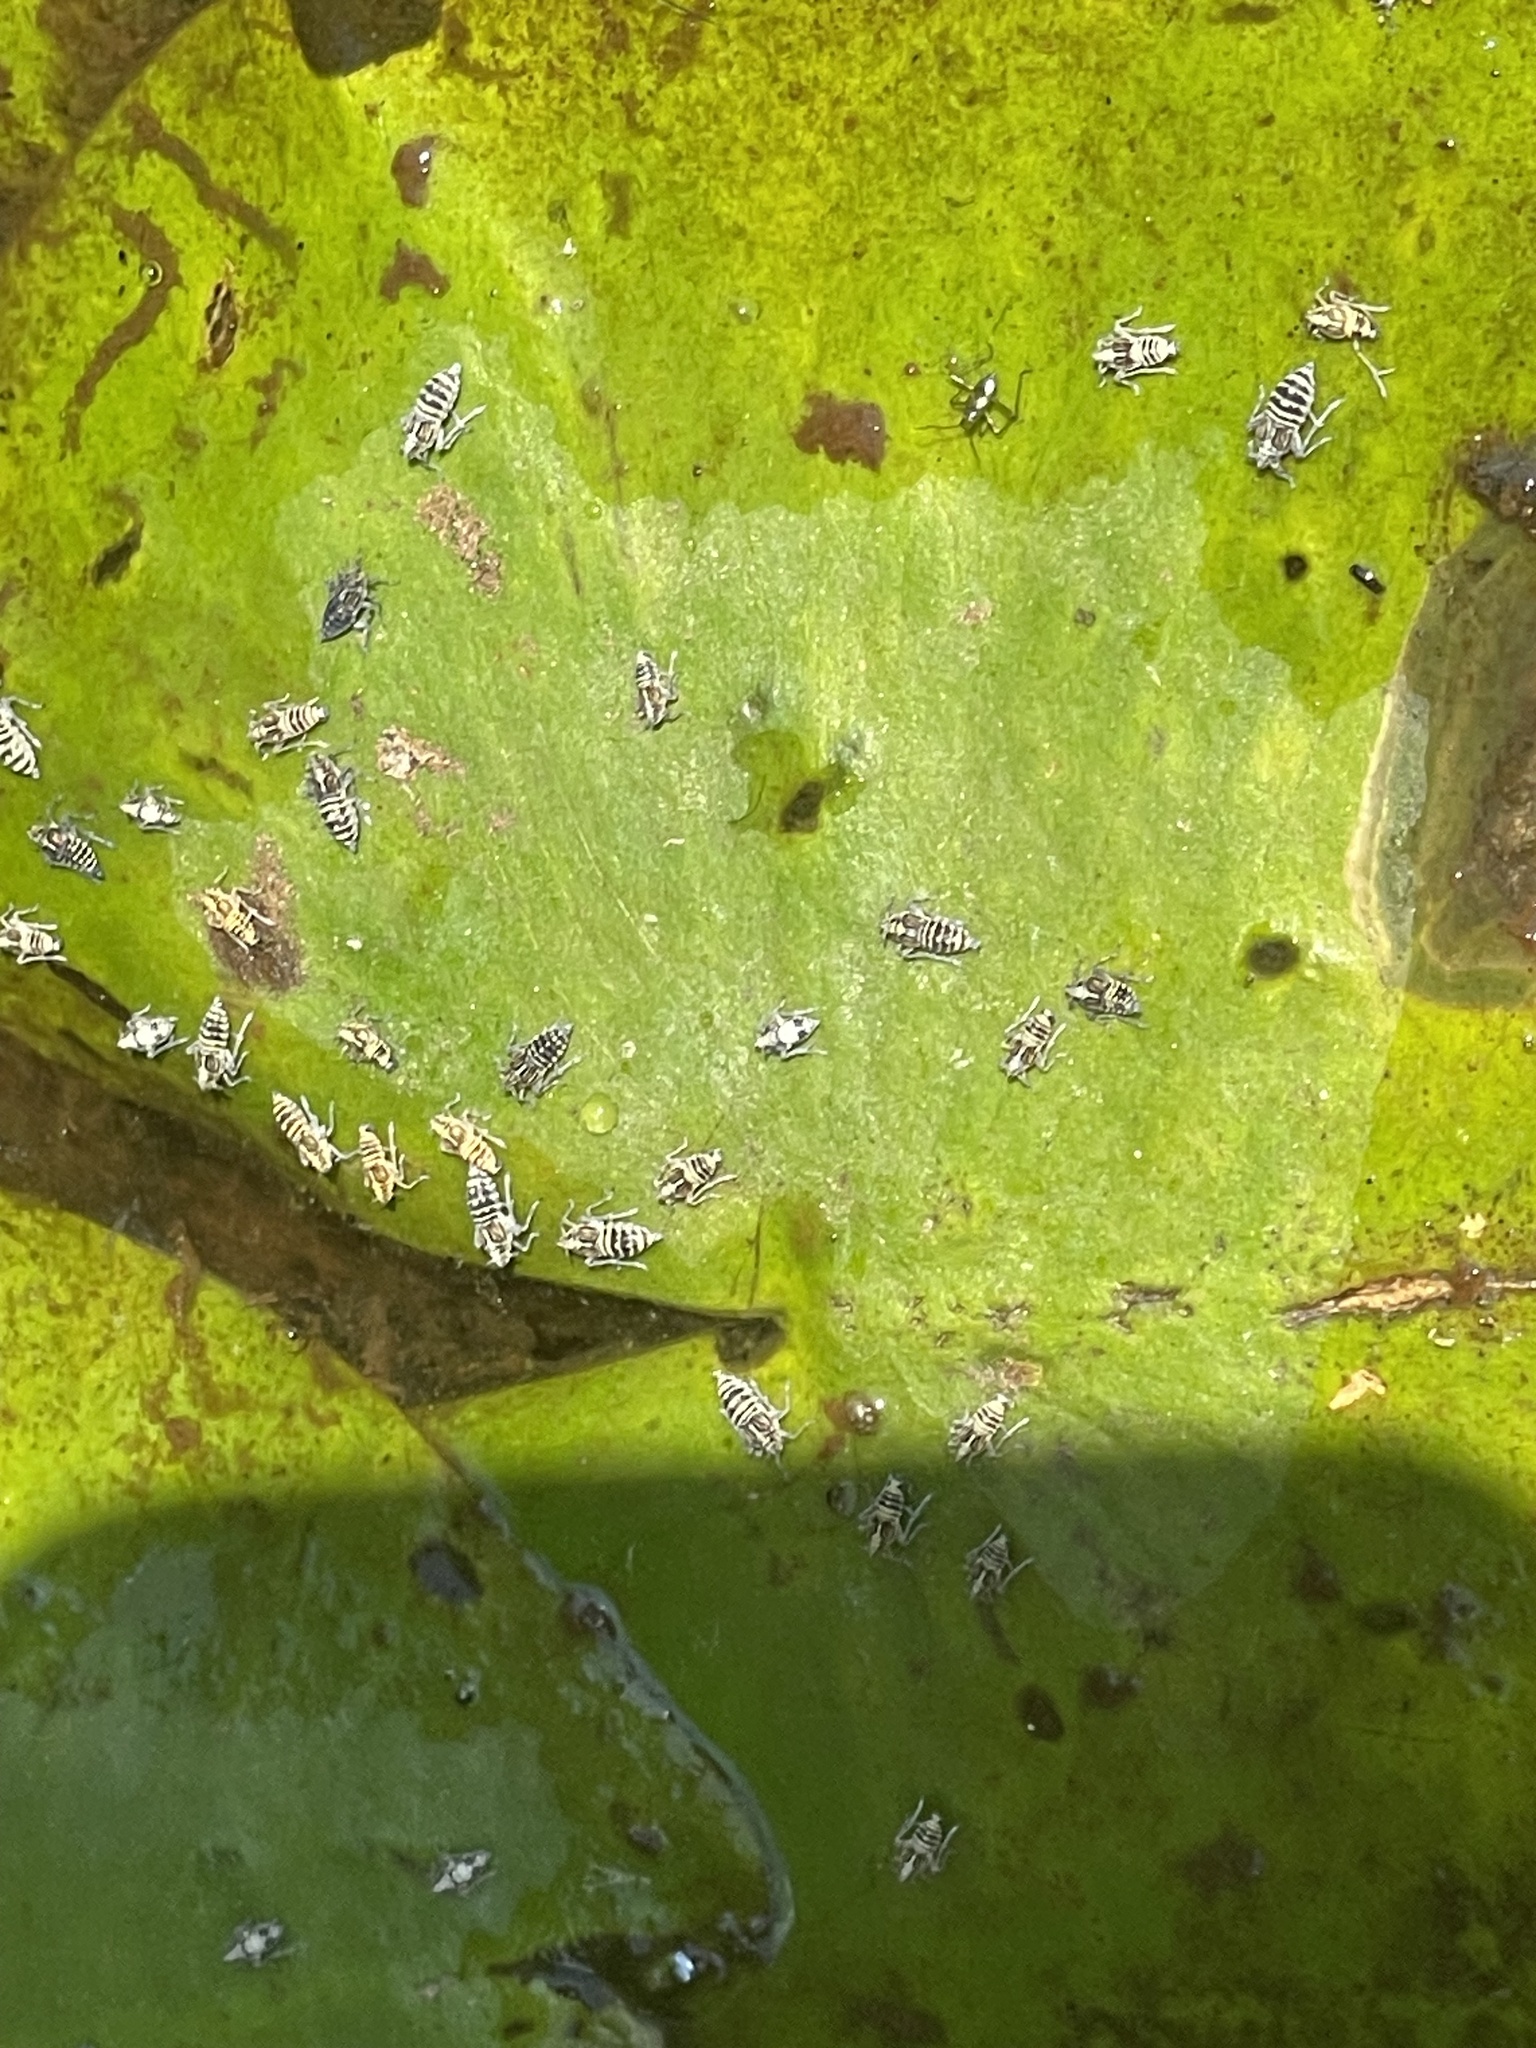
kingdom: Animalia
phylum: Arthropoda
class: Insecta
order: Hemiptera
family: Delphacidae
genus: Megamelus
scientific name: Megamelus davisi
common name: Planthopper
